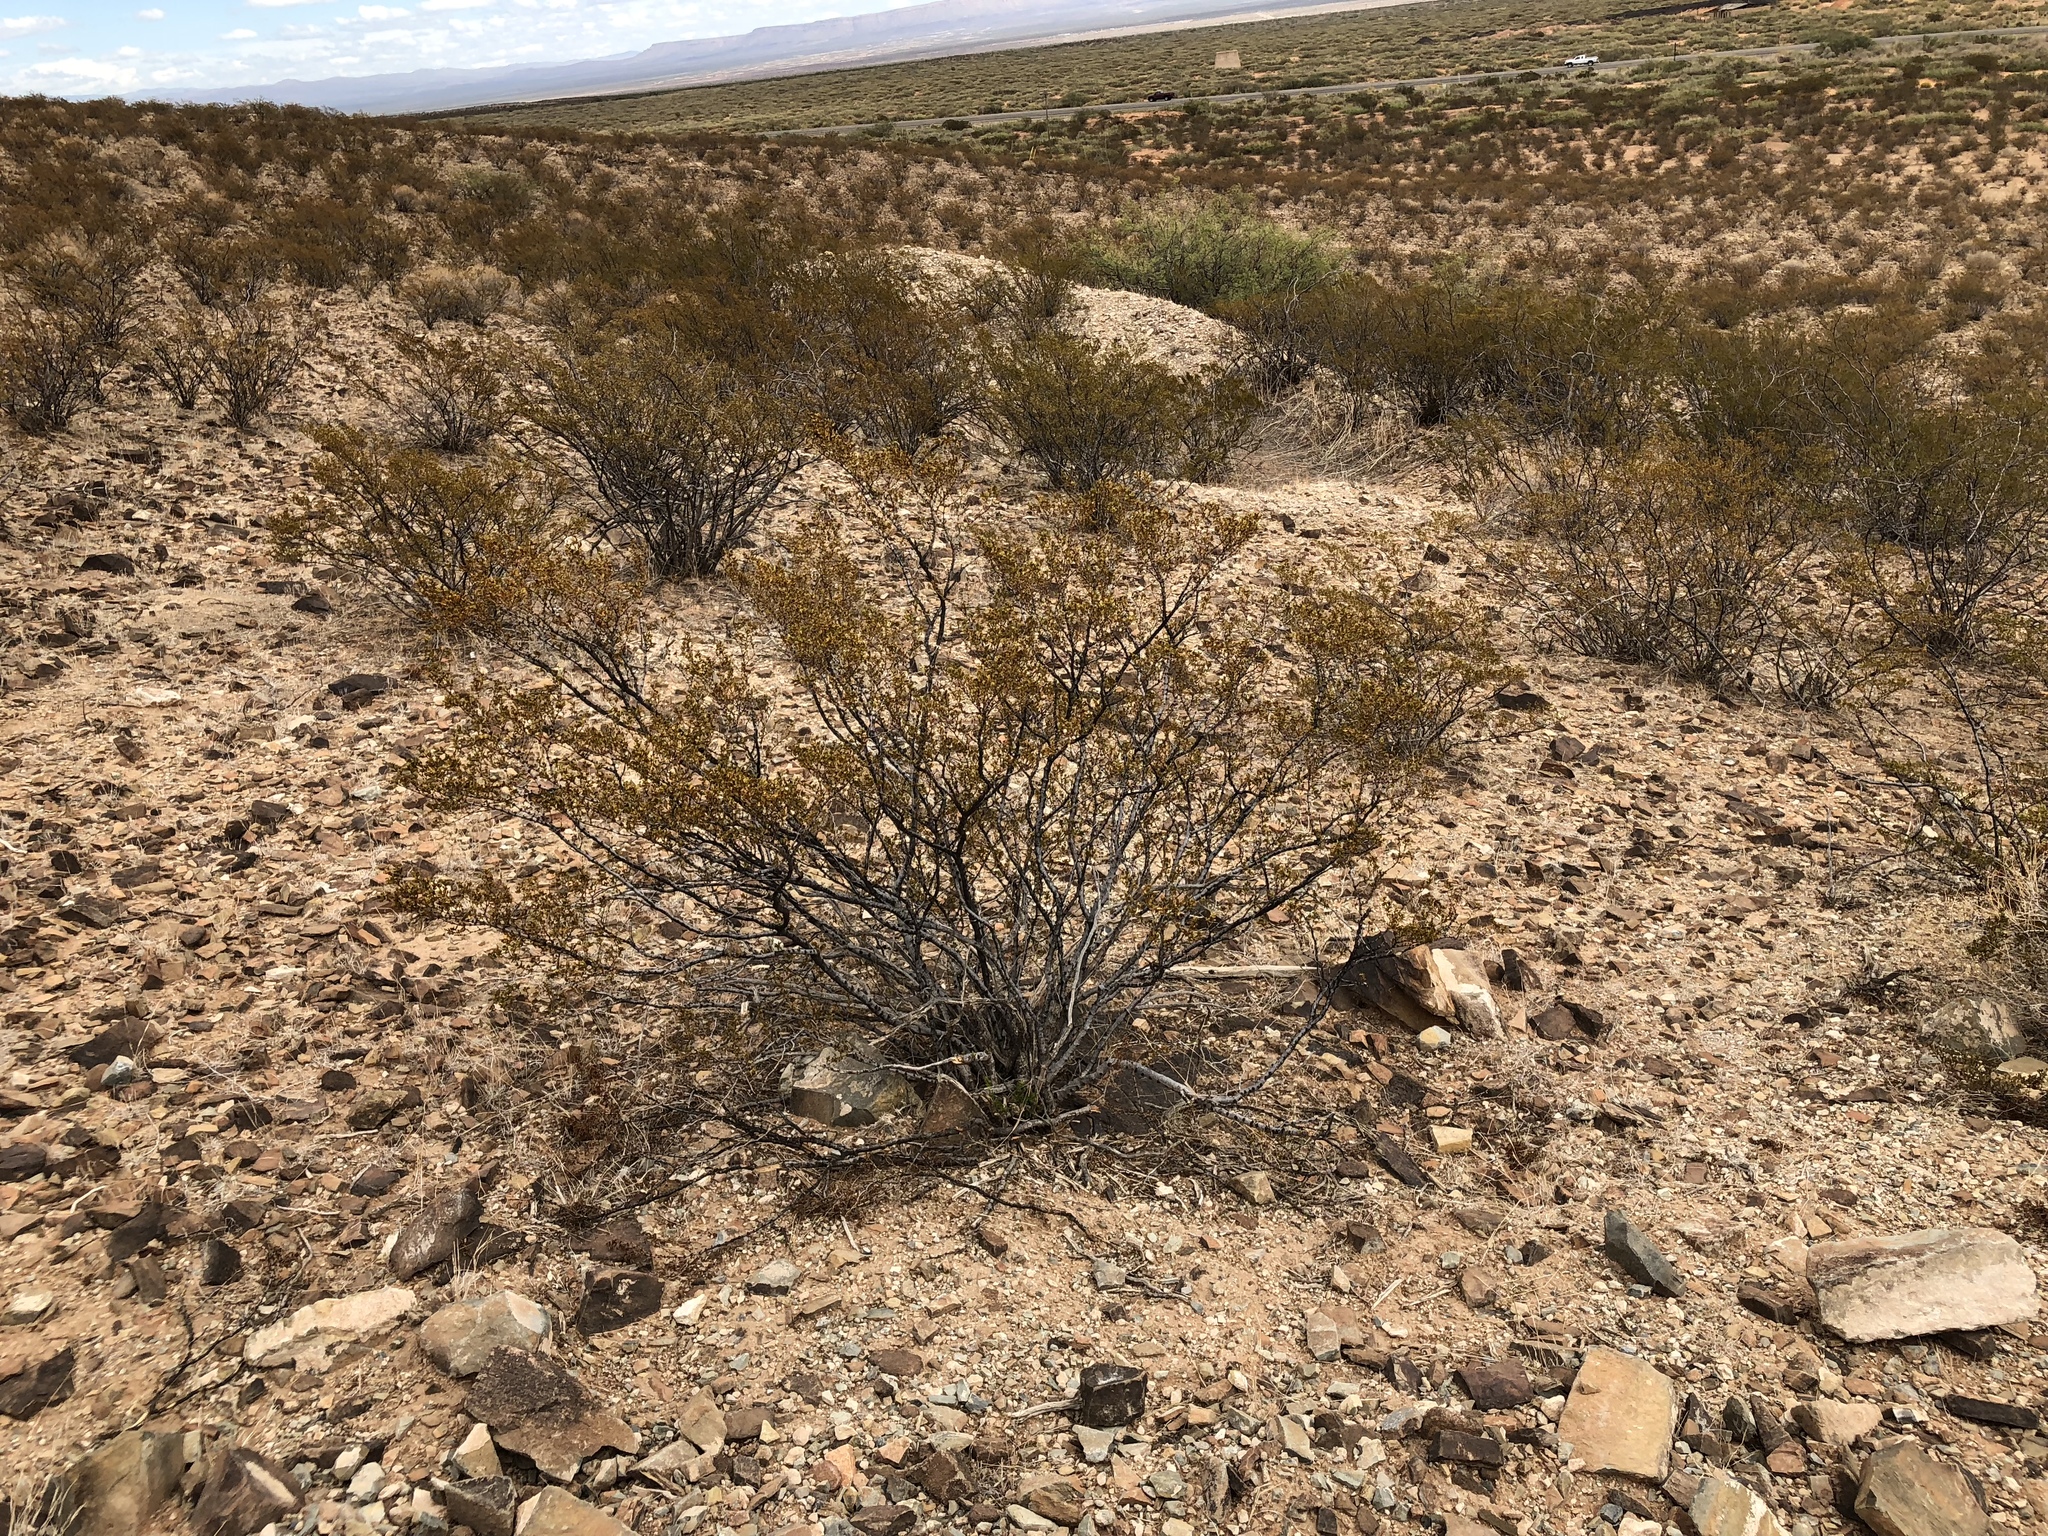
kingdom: Plantae
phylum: Tracheophyta
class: Magnoliopsida
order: Zygophyllales
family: Zygophyllaceae
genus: Larrea
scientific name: Larrea tridentata
